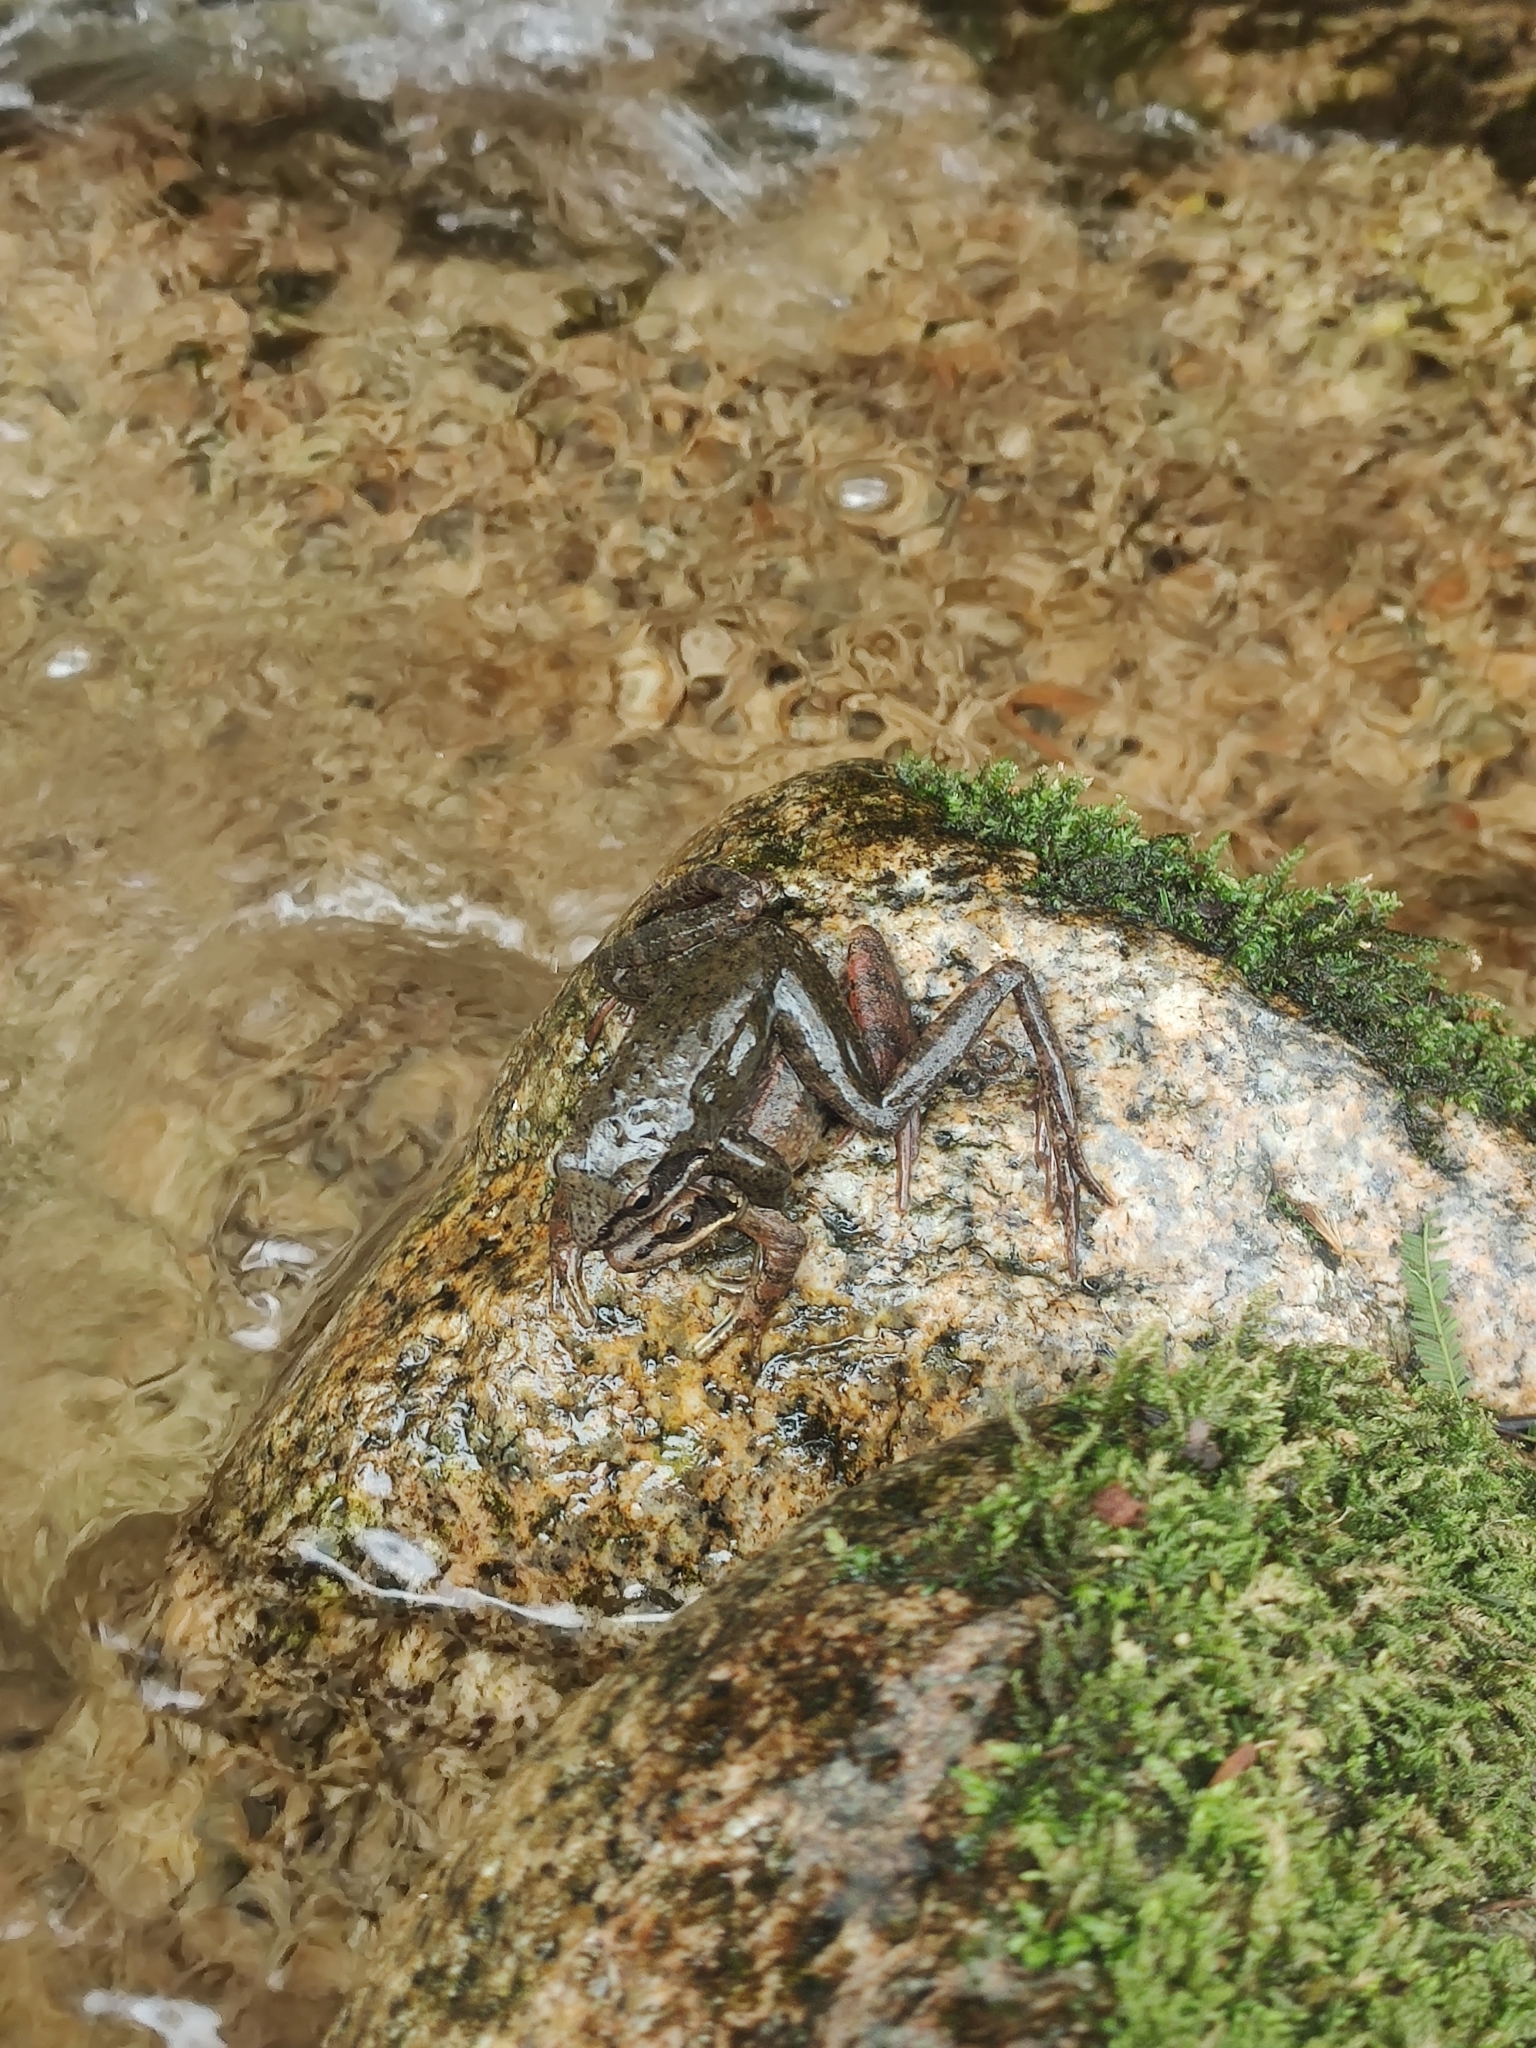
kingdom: Animalia
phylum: Chordata
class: Amphibia
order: Anura
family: Ranidae
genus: Rana
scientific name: Rana iberica
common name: Iberian frog
